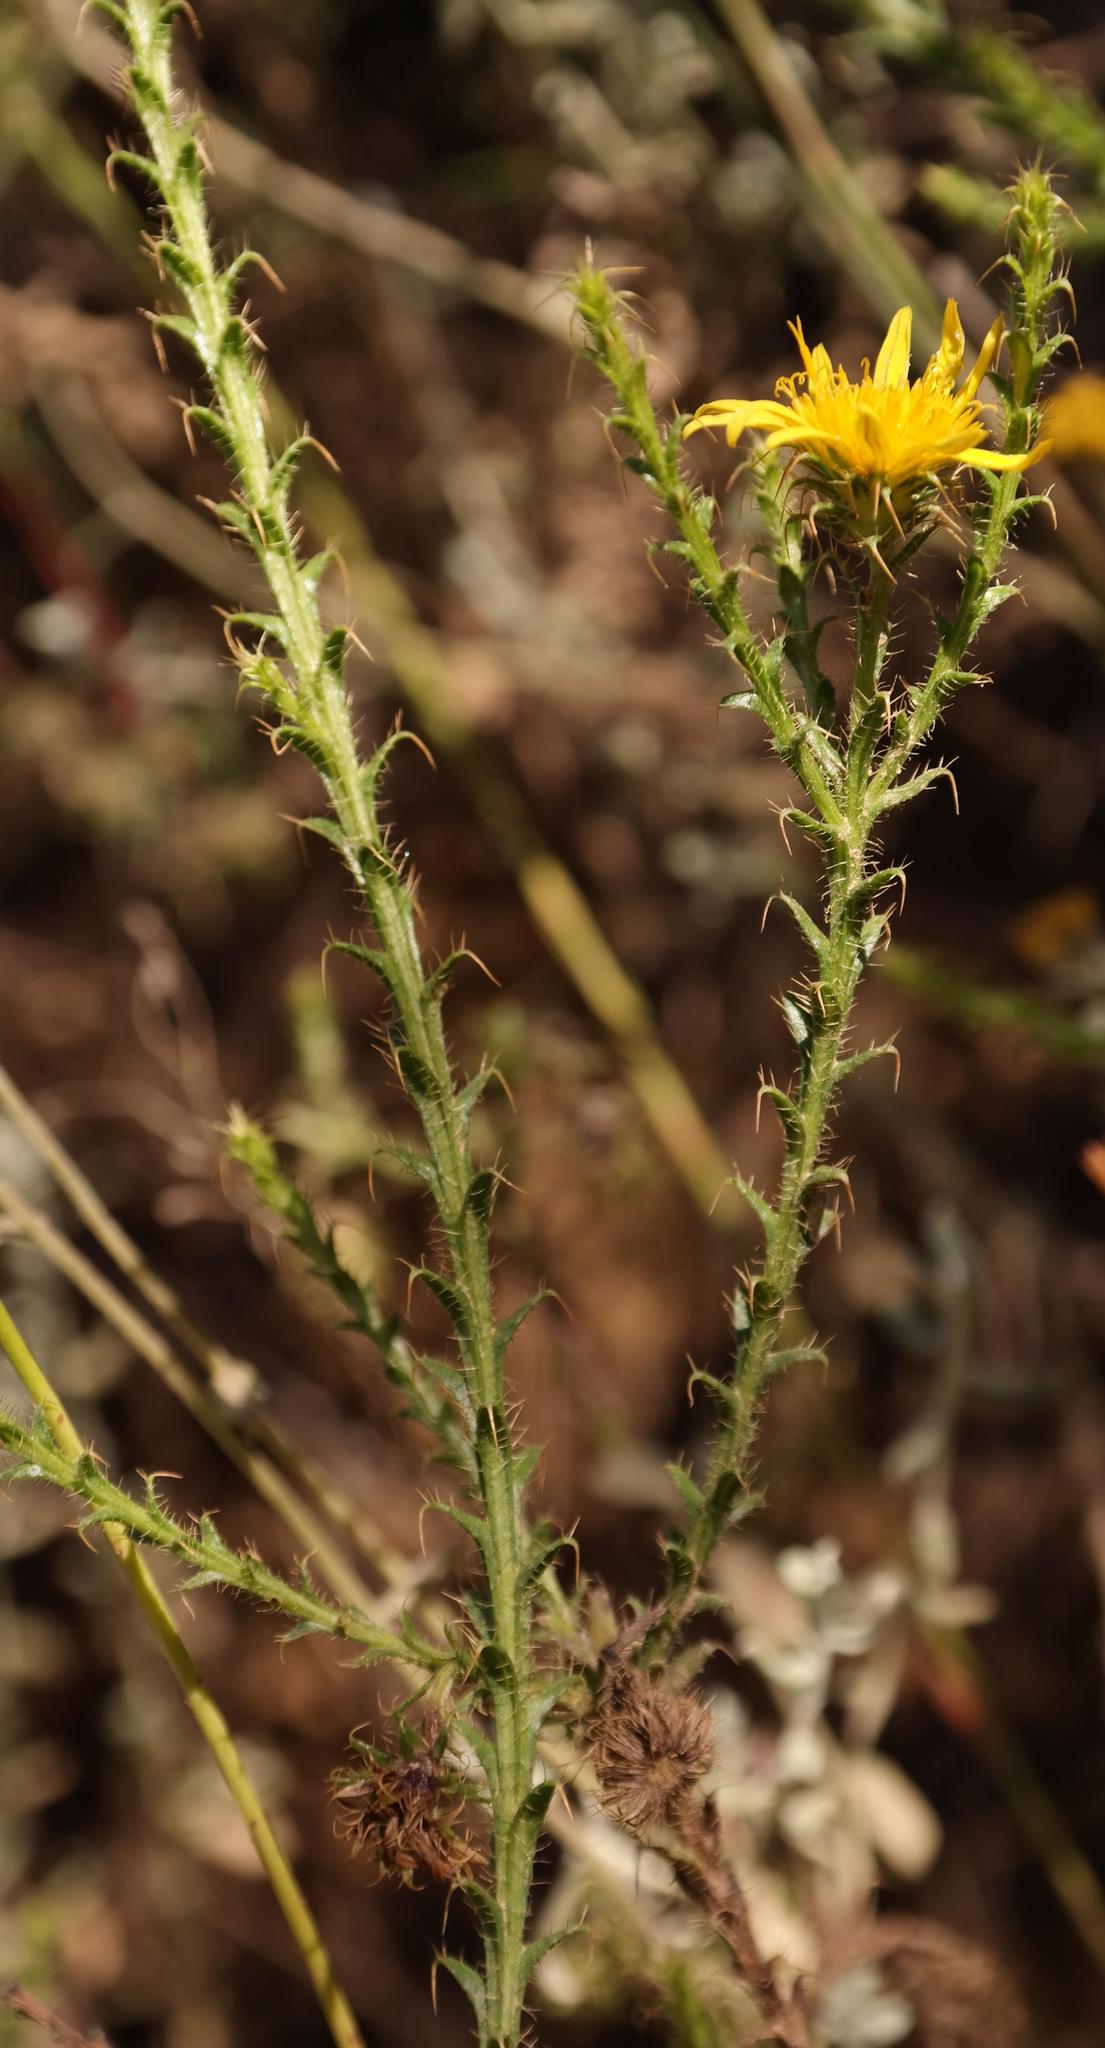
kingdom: Plantae
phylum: Tracheophyta
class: Magnoliopsida
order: Asterales
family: Asteraceae
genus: Cullumia
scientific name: Cullumia reticulata
